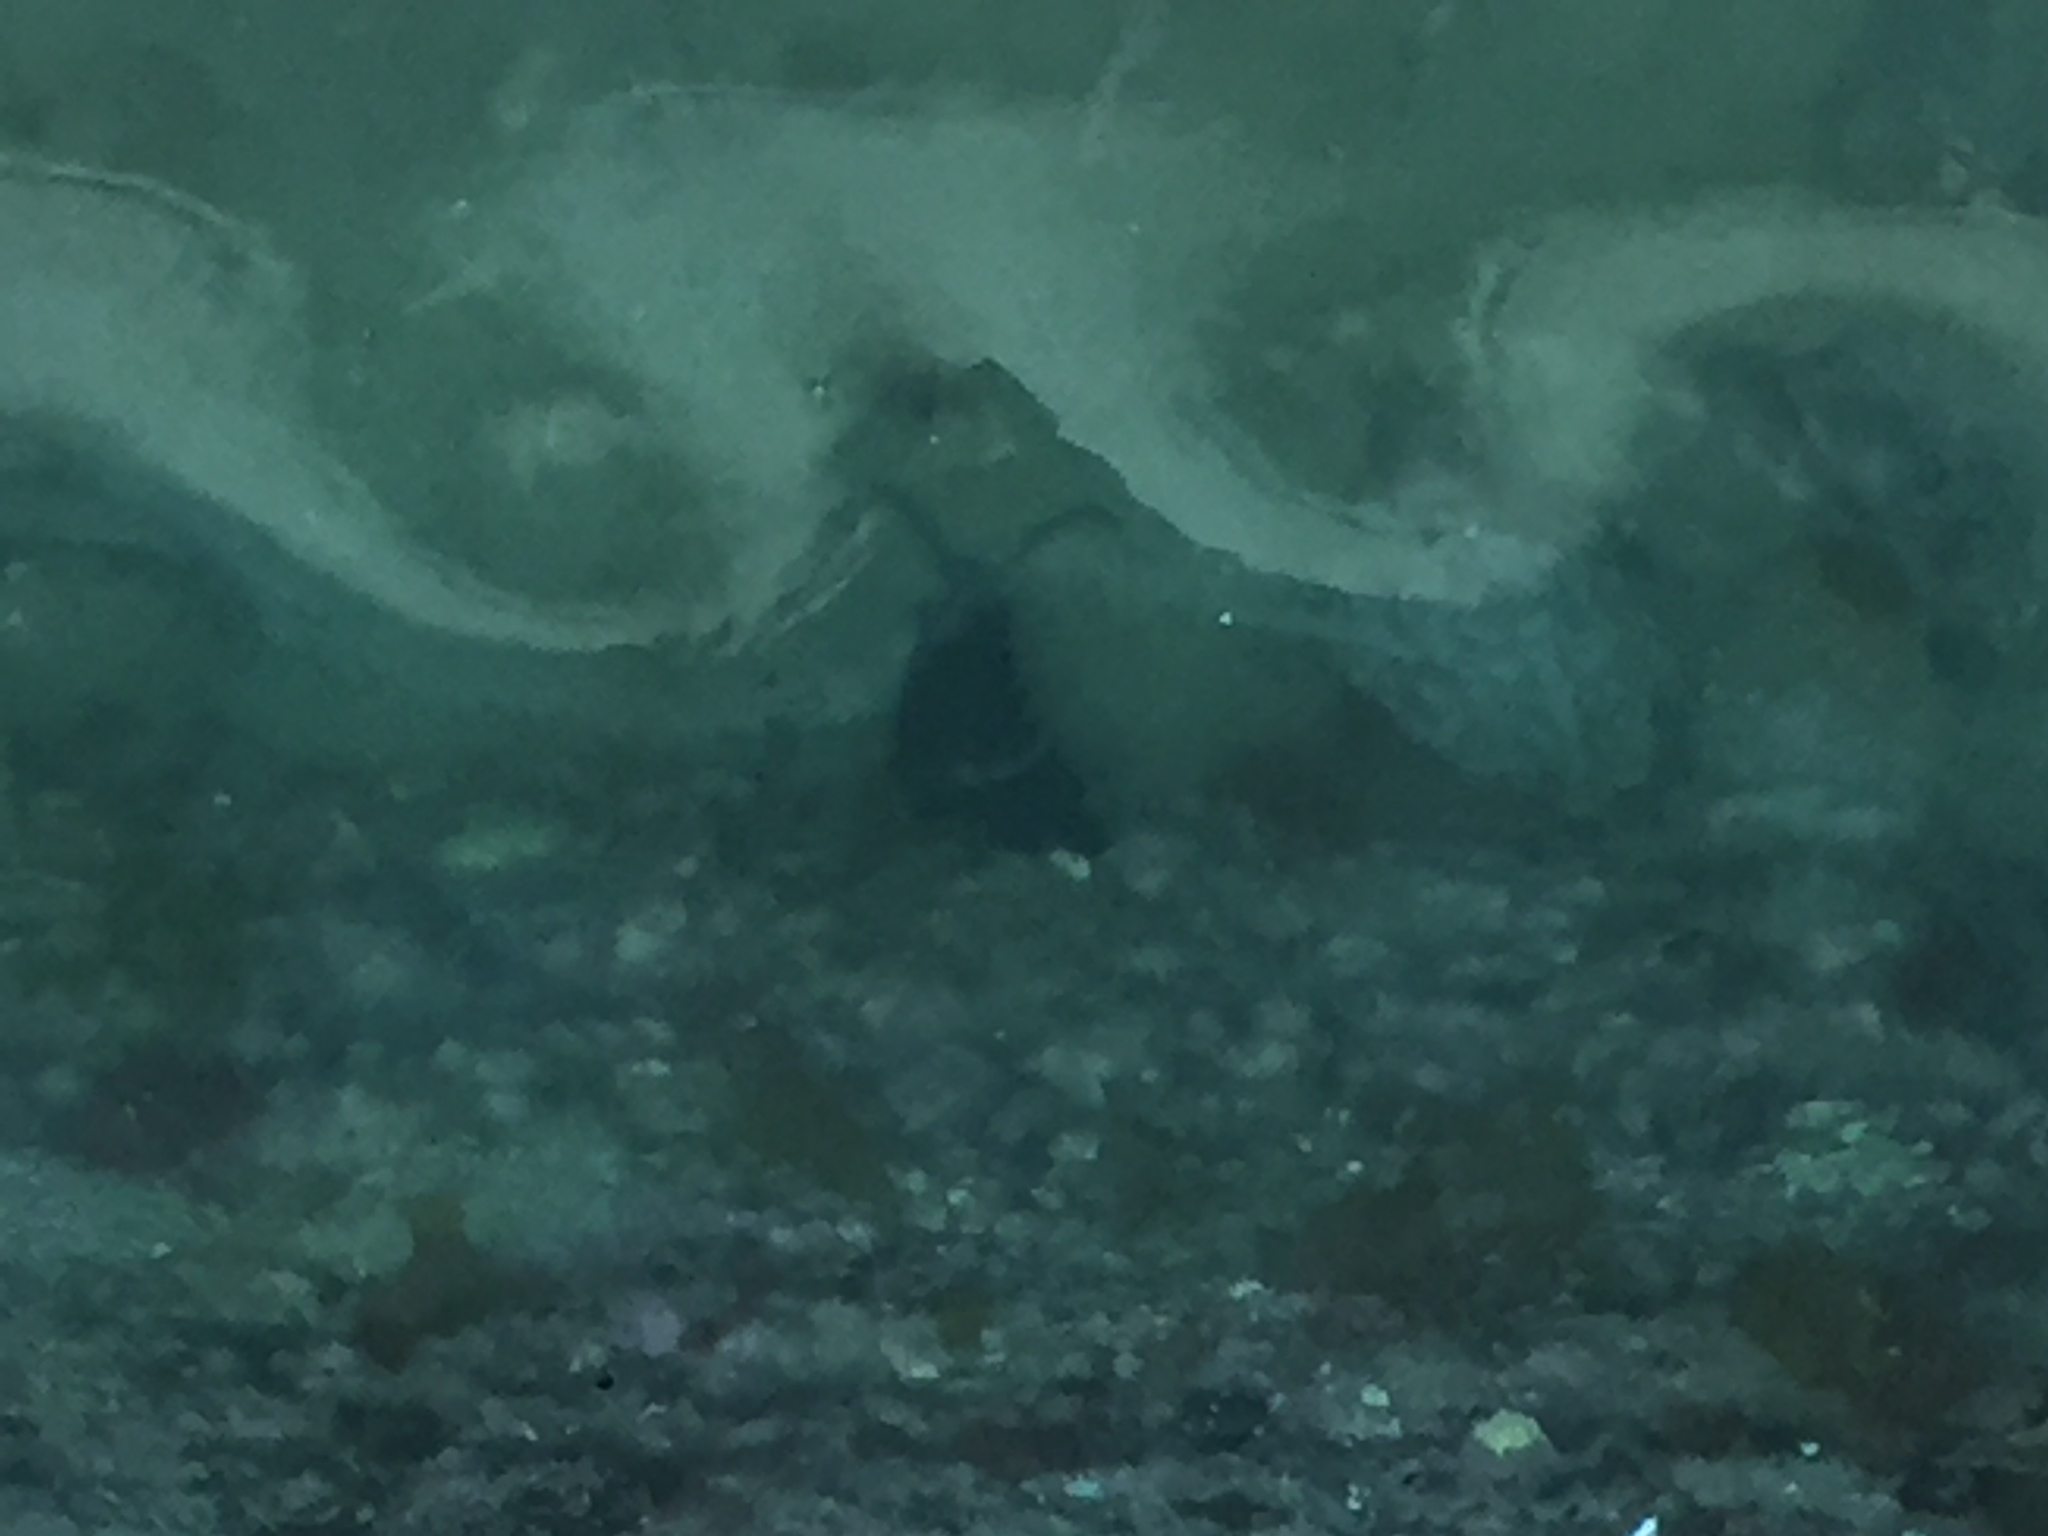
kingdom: Animalia
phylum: Mollusca
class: Gastropoda
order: Lepetellida
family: Fissurellidae
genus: Scutus
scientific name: Scutus breviculus
